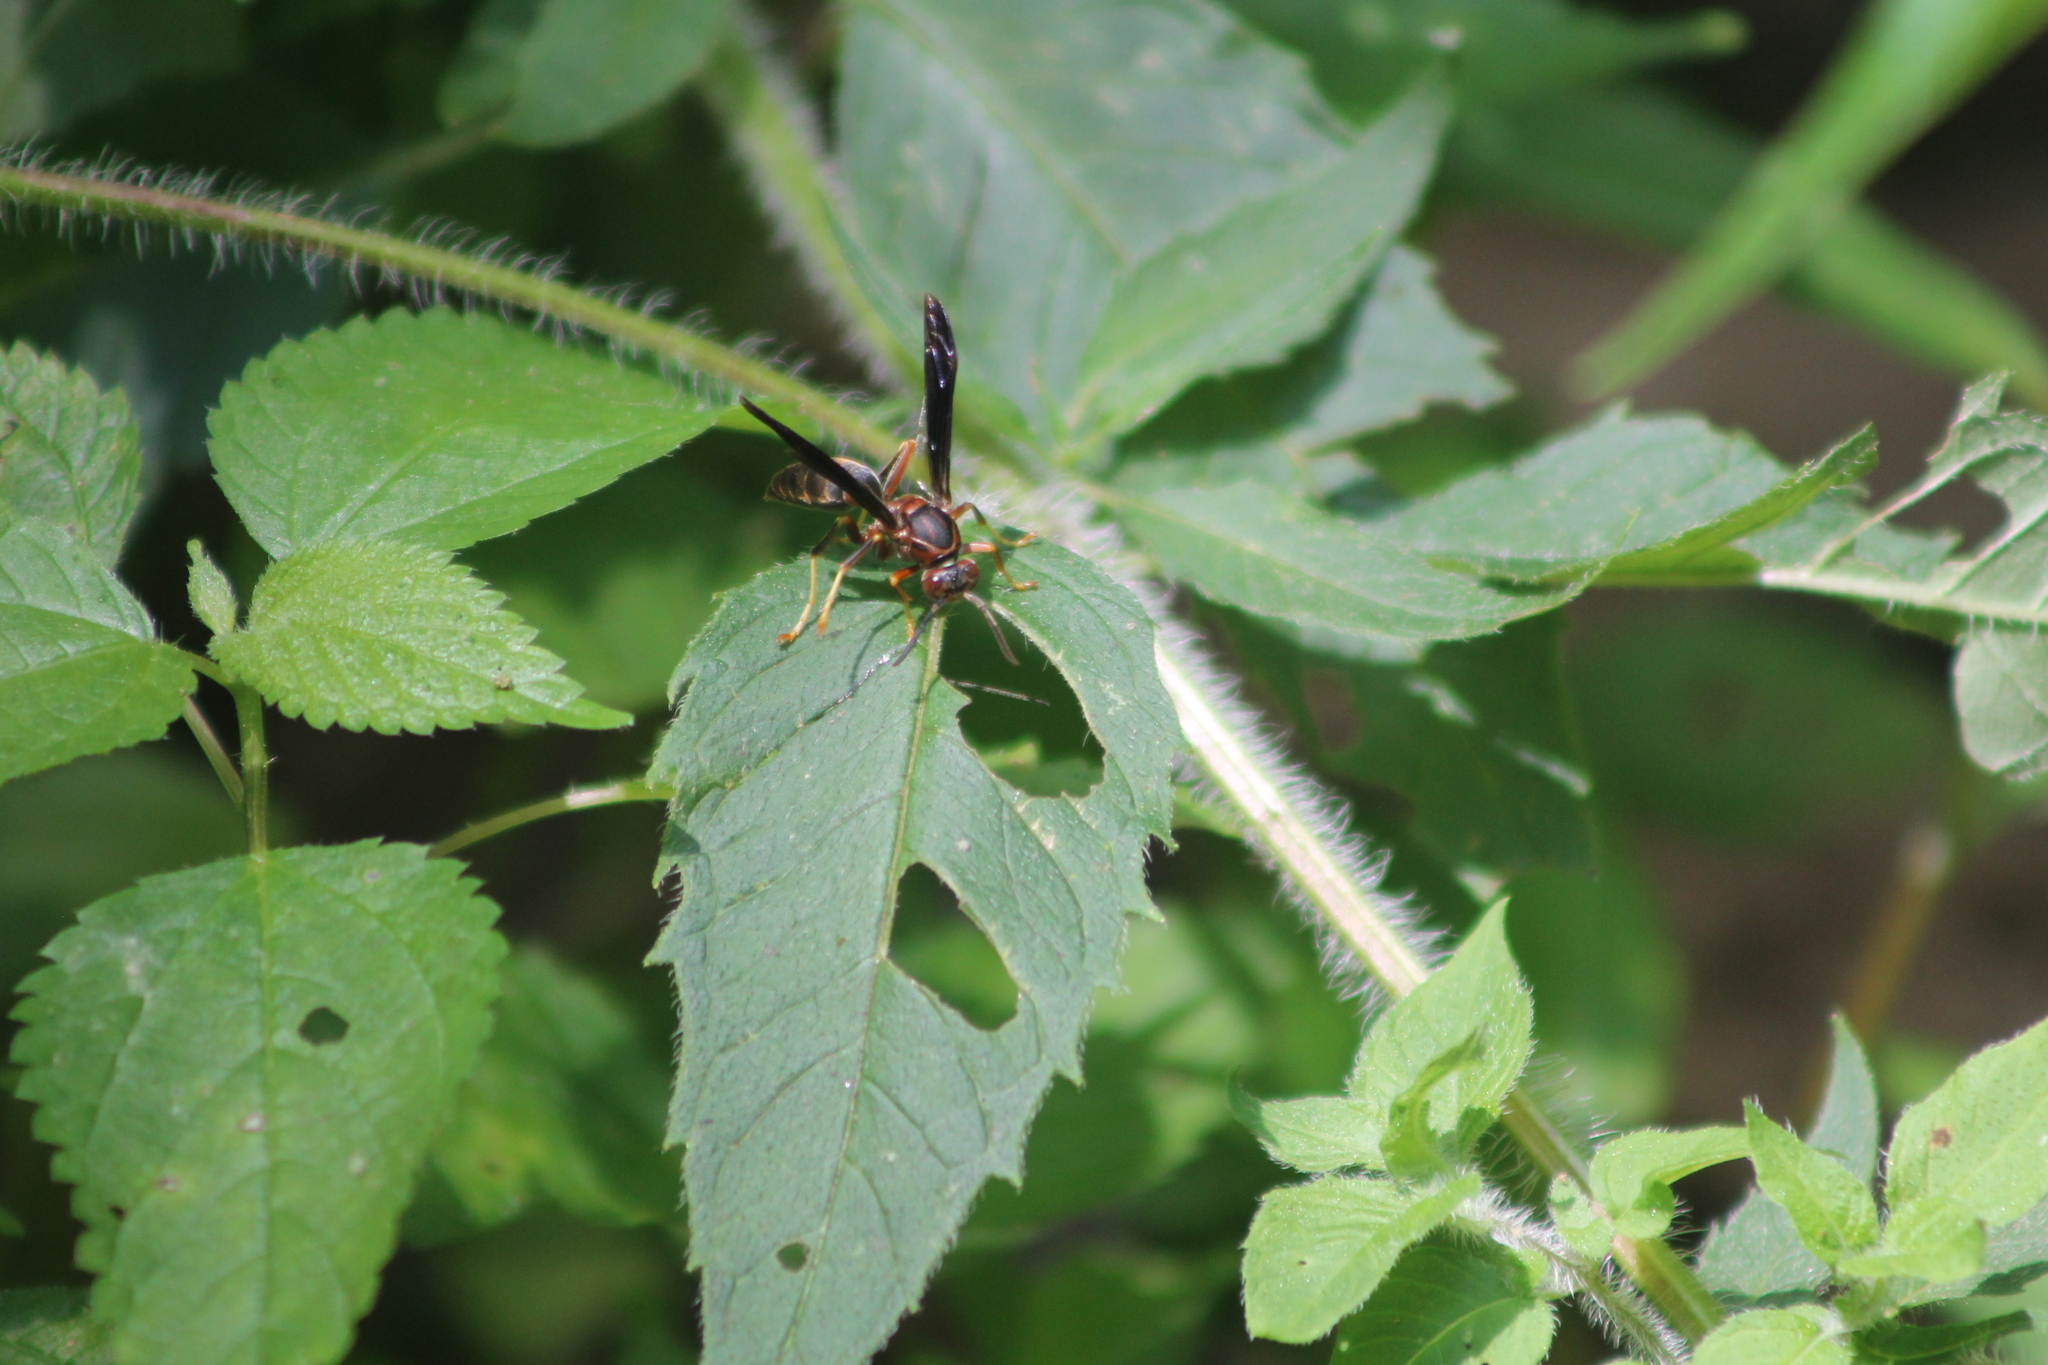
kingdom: Animalia
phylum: Arthropoda
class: Insecta
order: Hymenoptera
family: Eumenidae
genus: Polistes
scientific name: Polistes metricus
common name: Metric paper wasp
